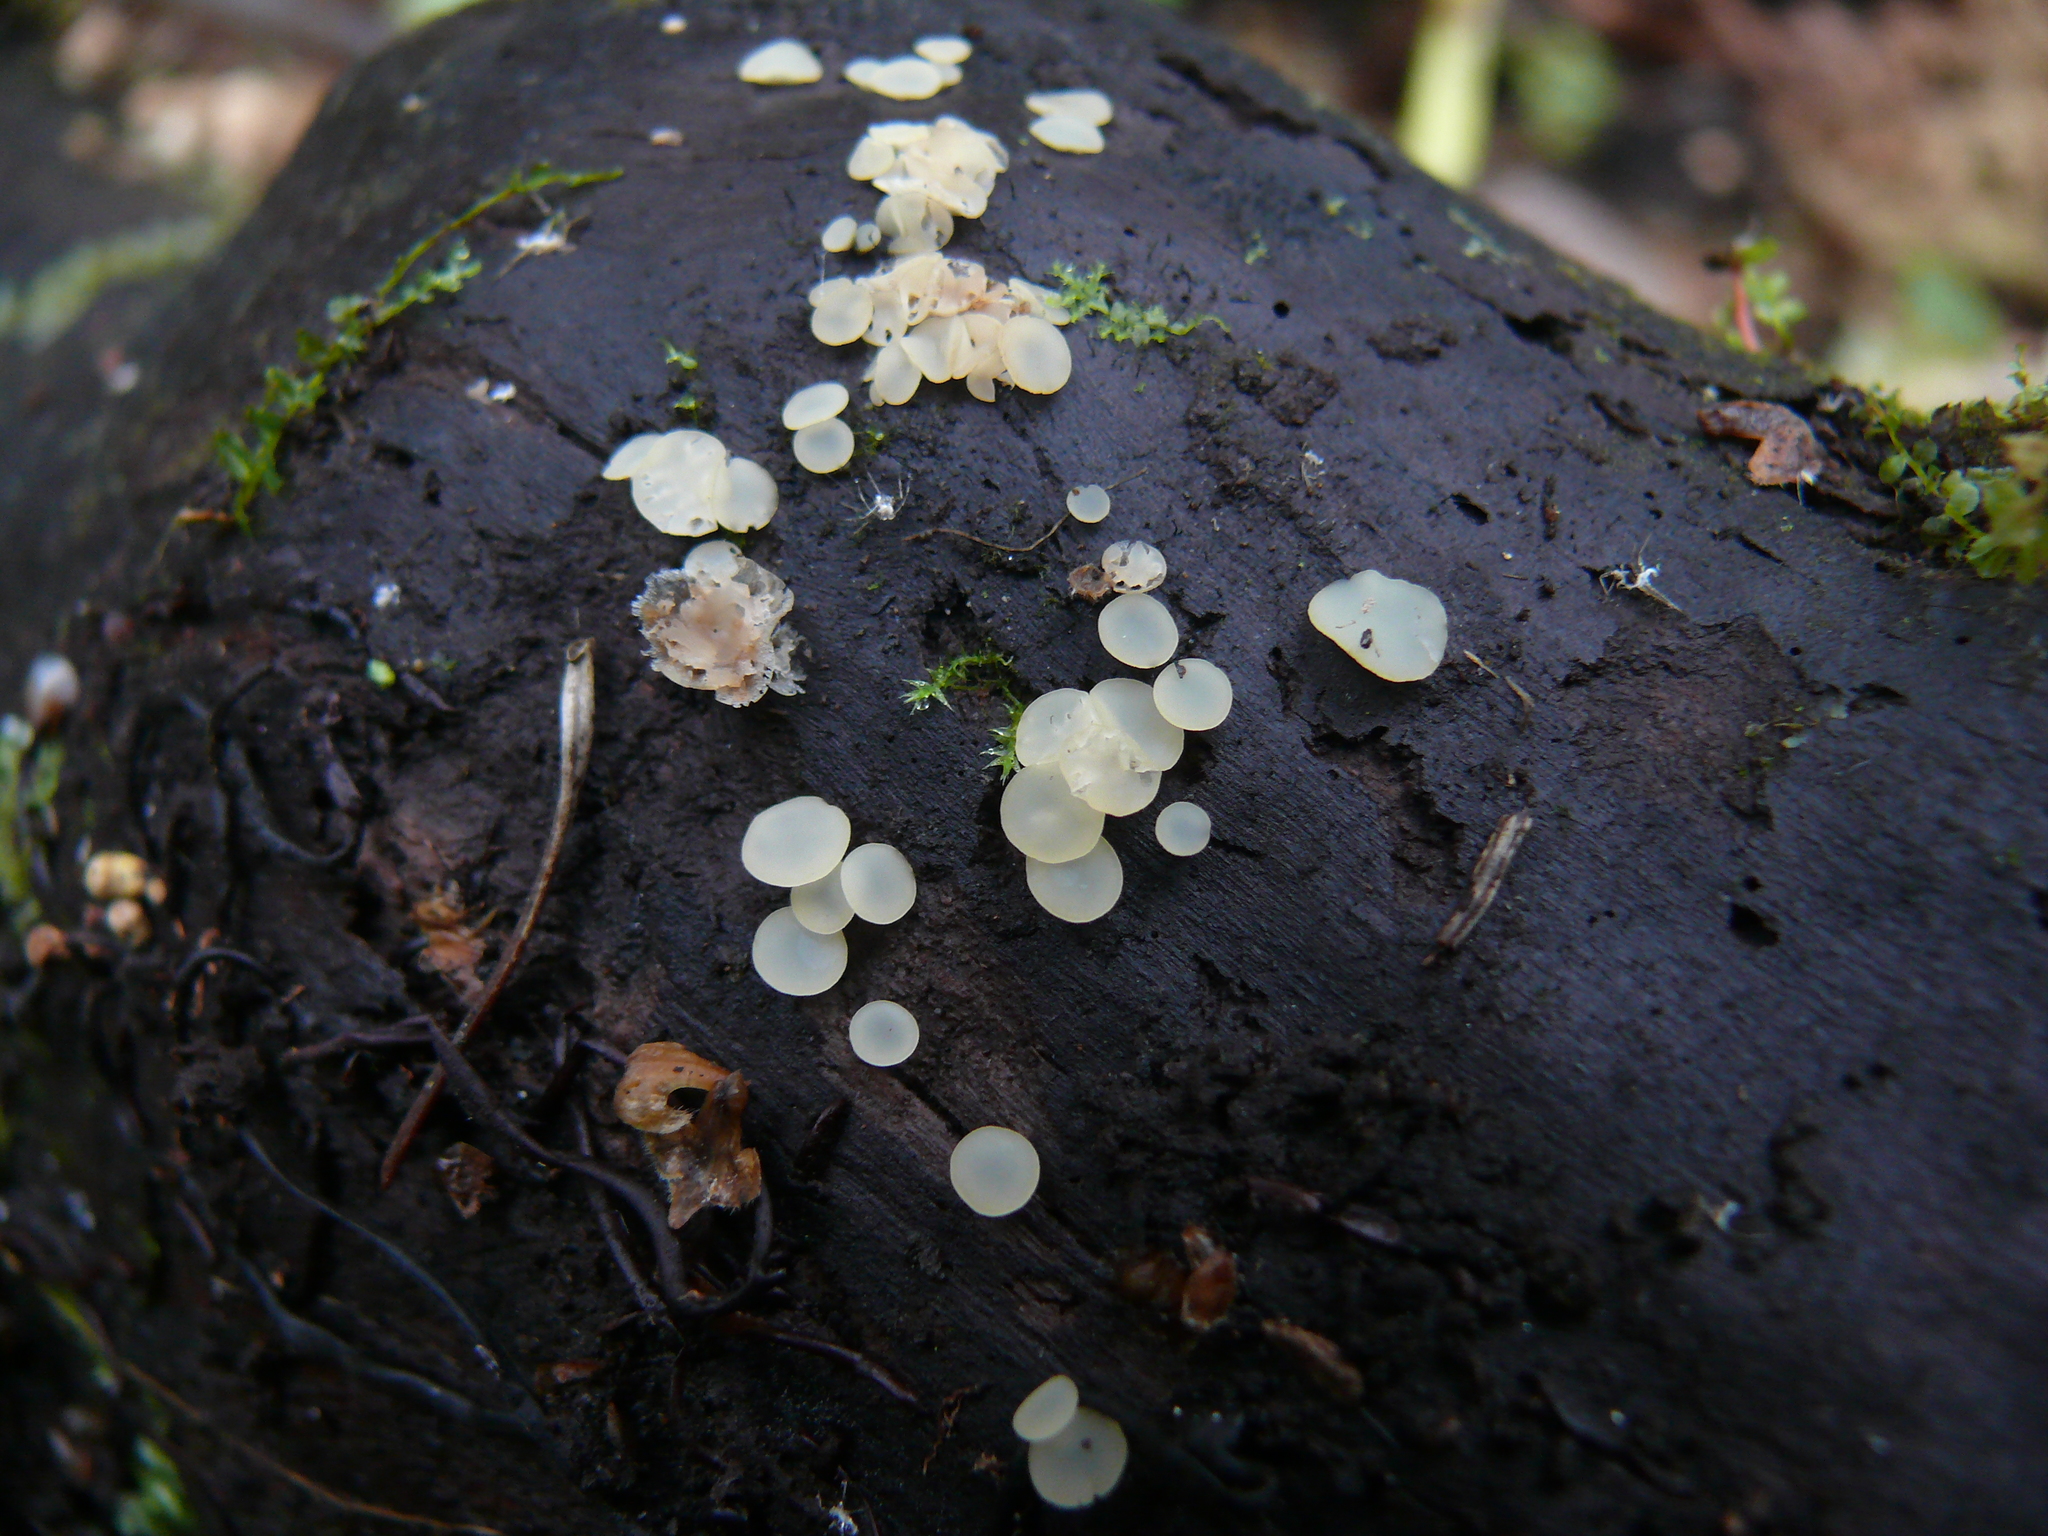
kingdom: Fungi
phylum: Ascomycota
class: Orbiliomycetes
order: Orbiliales
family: Orbiliaceae
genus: Orbilia
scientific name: Orbilia
